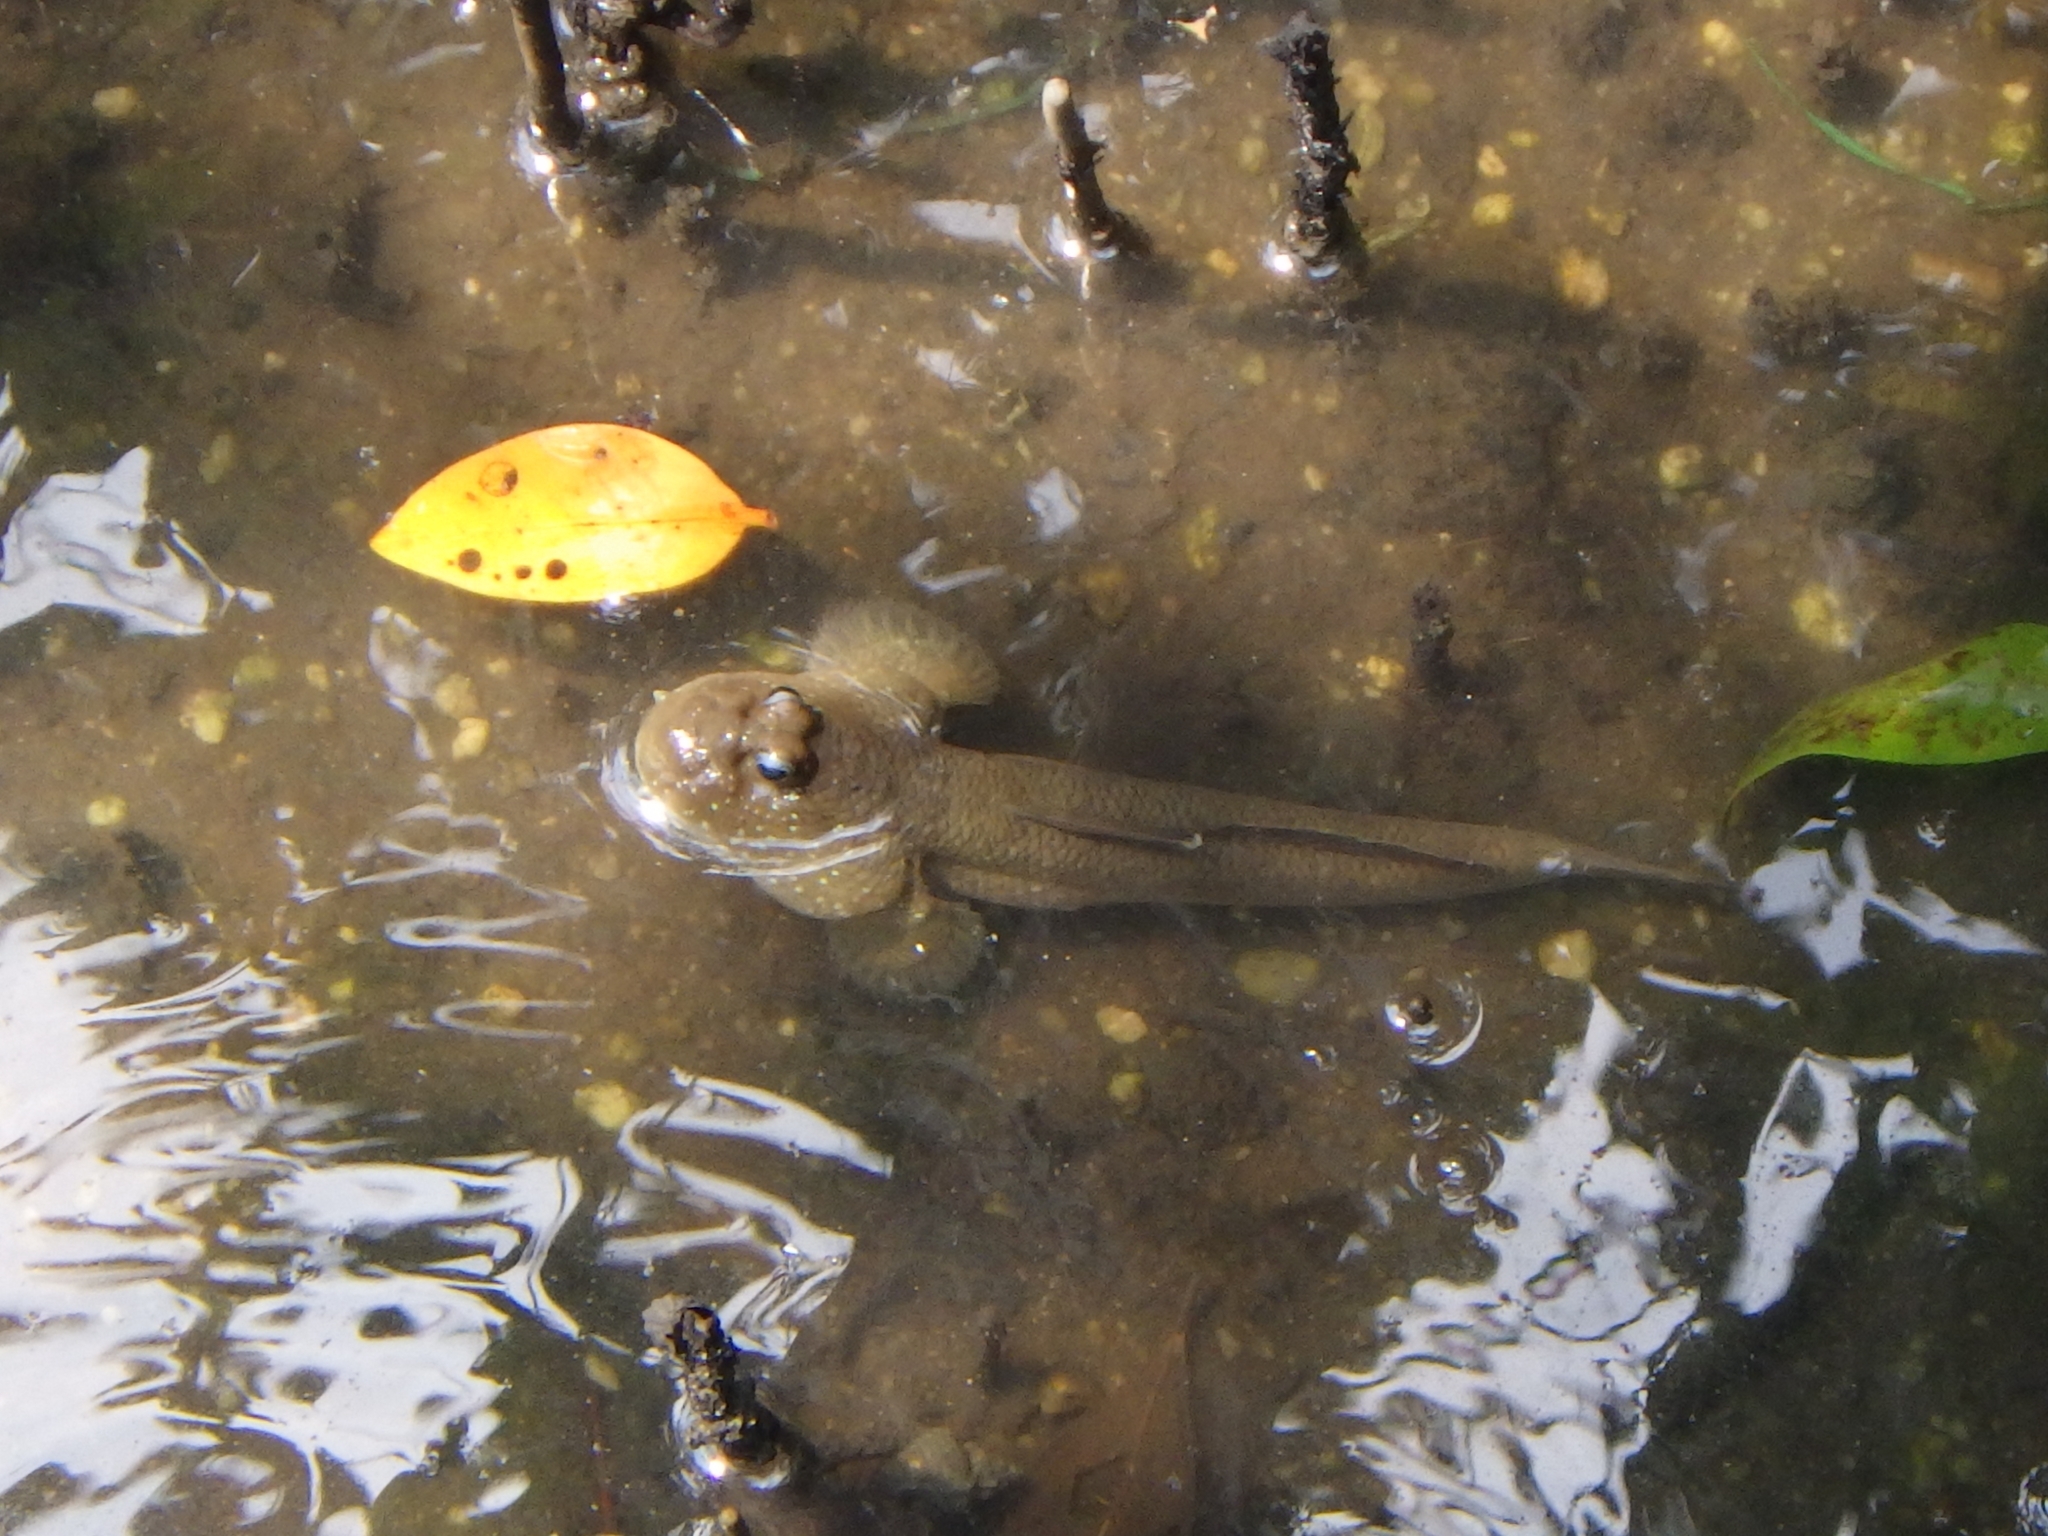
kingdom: Animalia
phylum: Chordata
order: Perciformes
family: Gobiidae
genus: Periophthalmodon
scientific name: Periophthalmodon schlosseri
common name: Giant mudskipper
